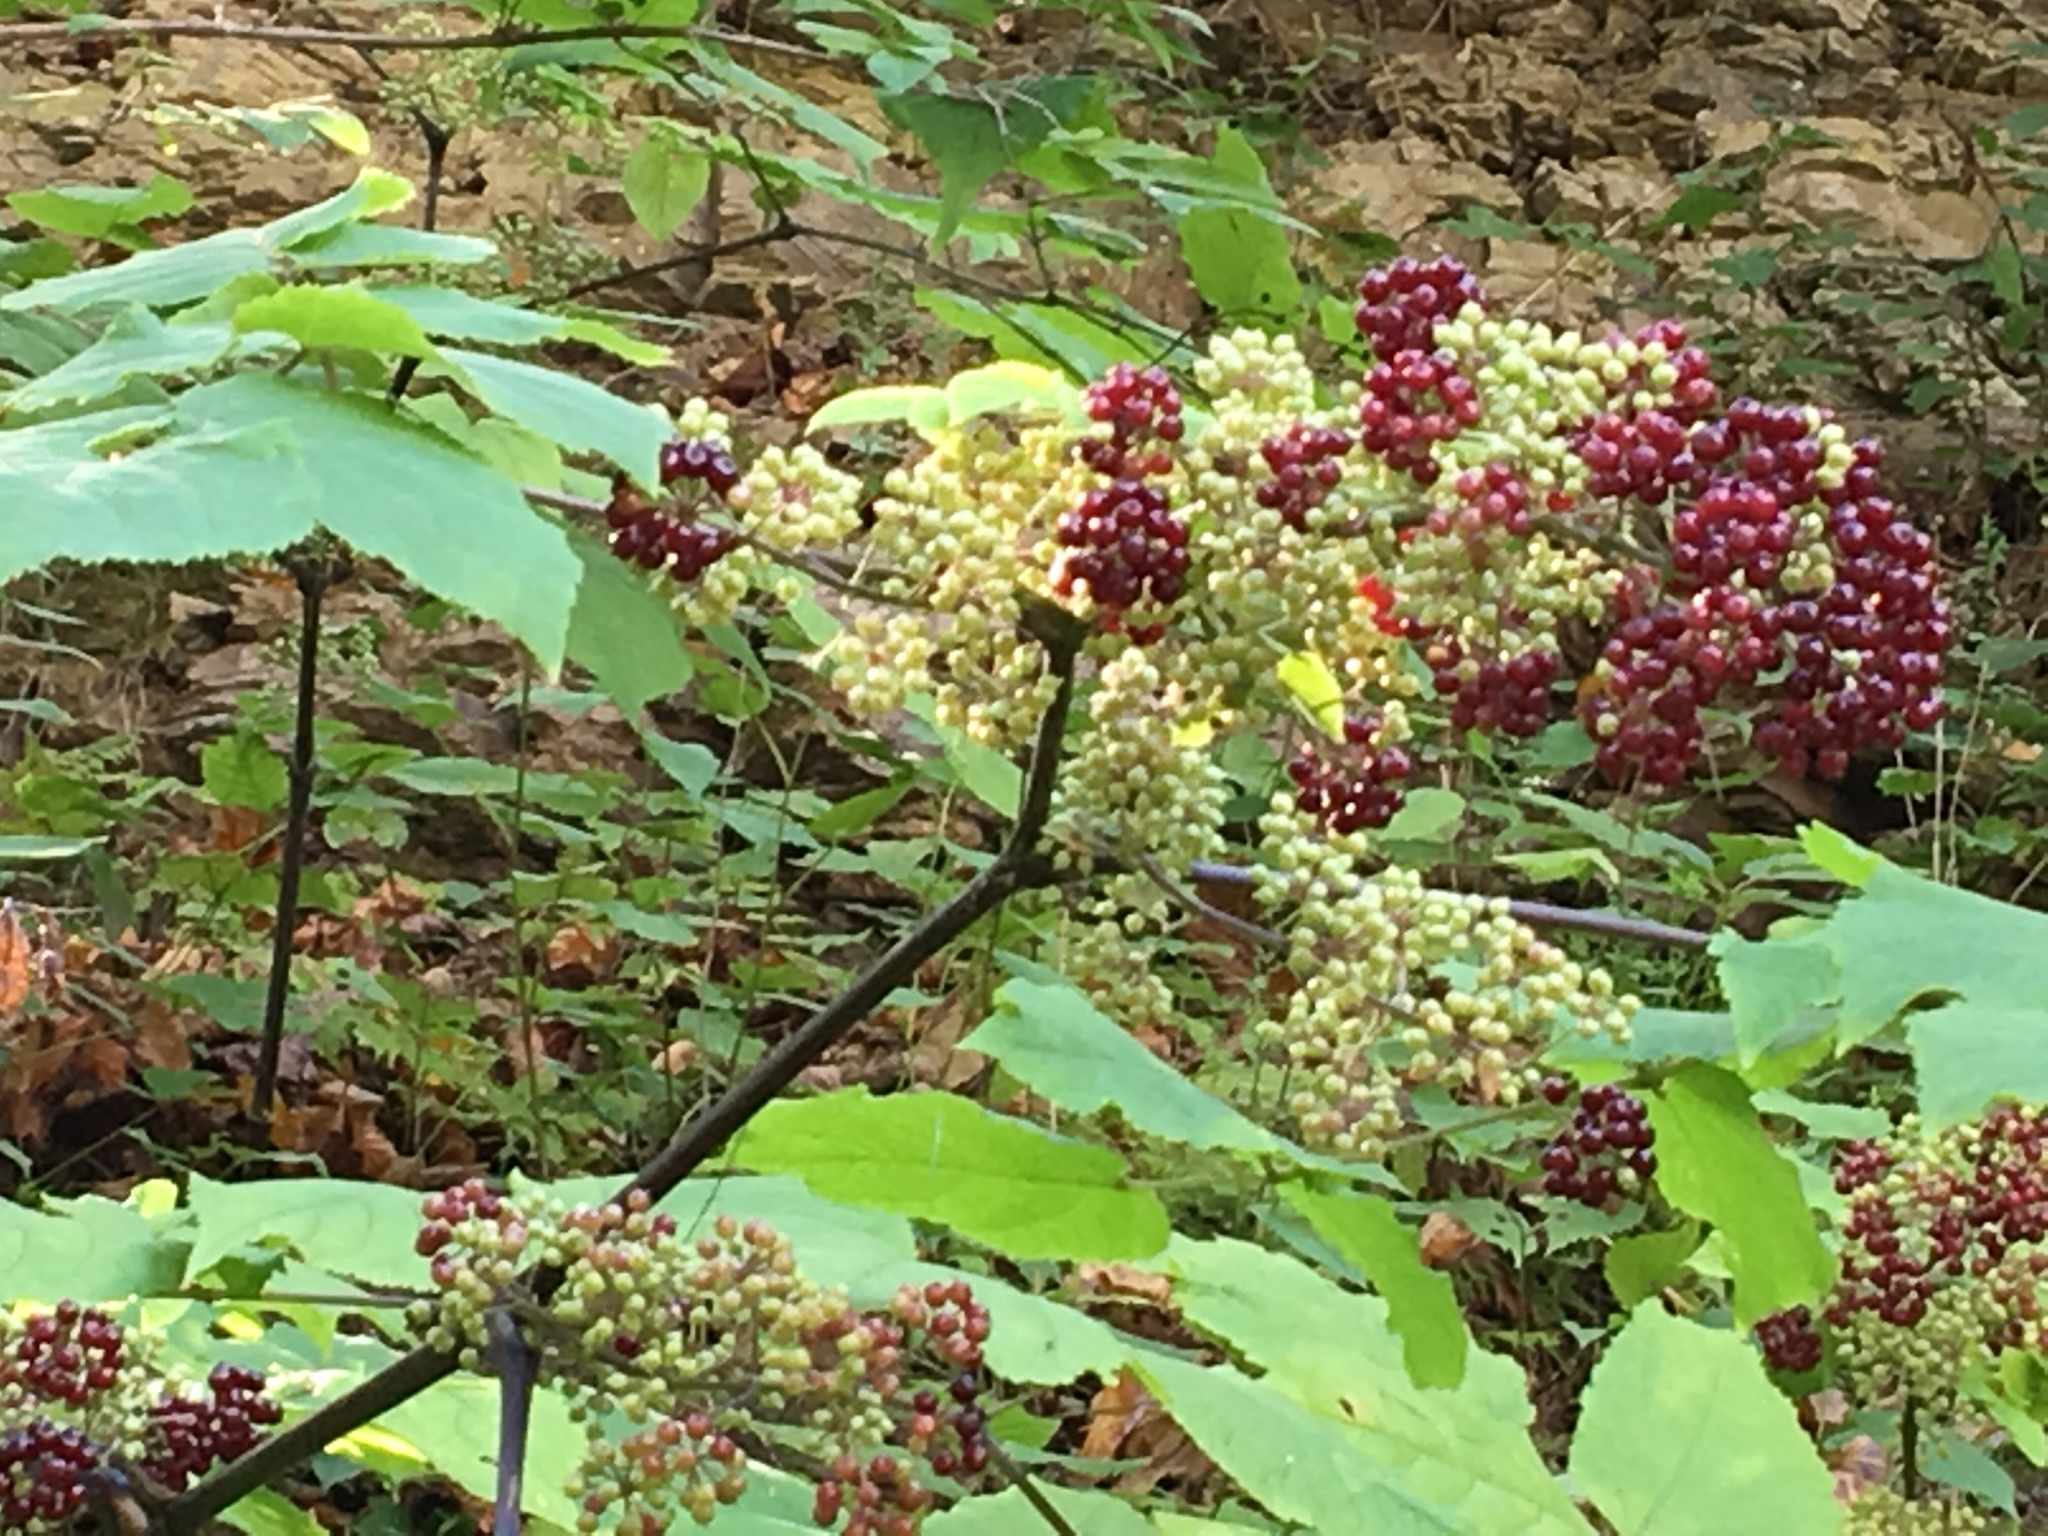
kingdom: Plantae
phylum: Tracheophyta
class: Magnoliopsida
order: Apiales
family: Araliaceae
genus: Aralia
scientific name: Aralia racemosa
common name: American-spikenard
